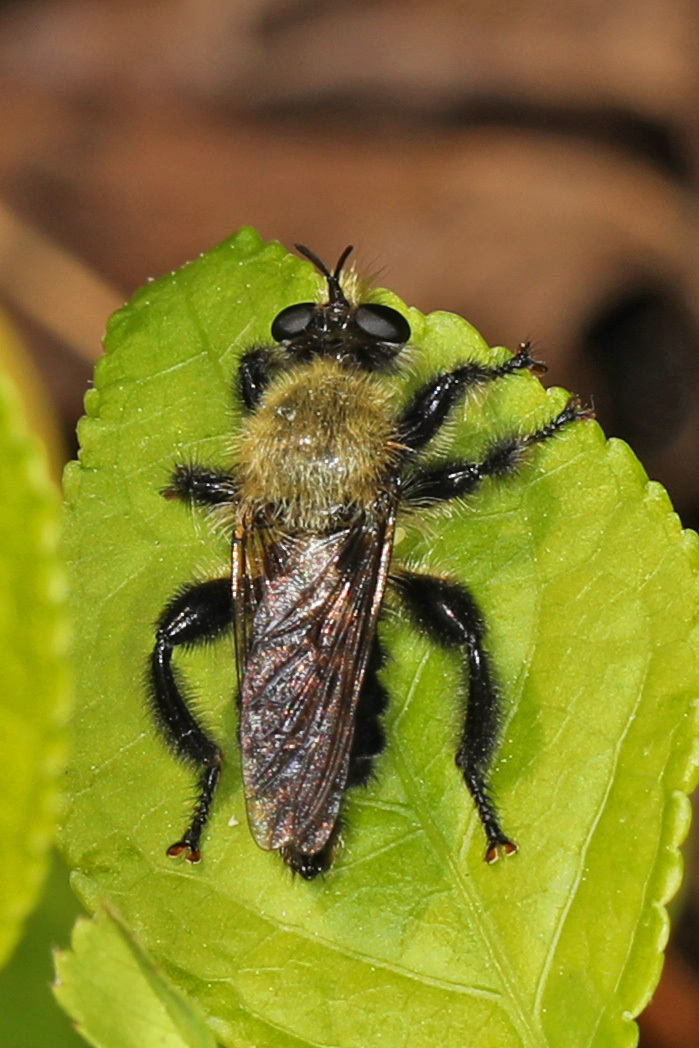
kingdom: Animalia
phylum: Arthropoda
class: Insecta
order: Diptera
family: Asilidae
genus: Laphria
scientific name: Laphria flavicollis
